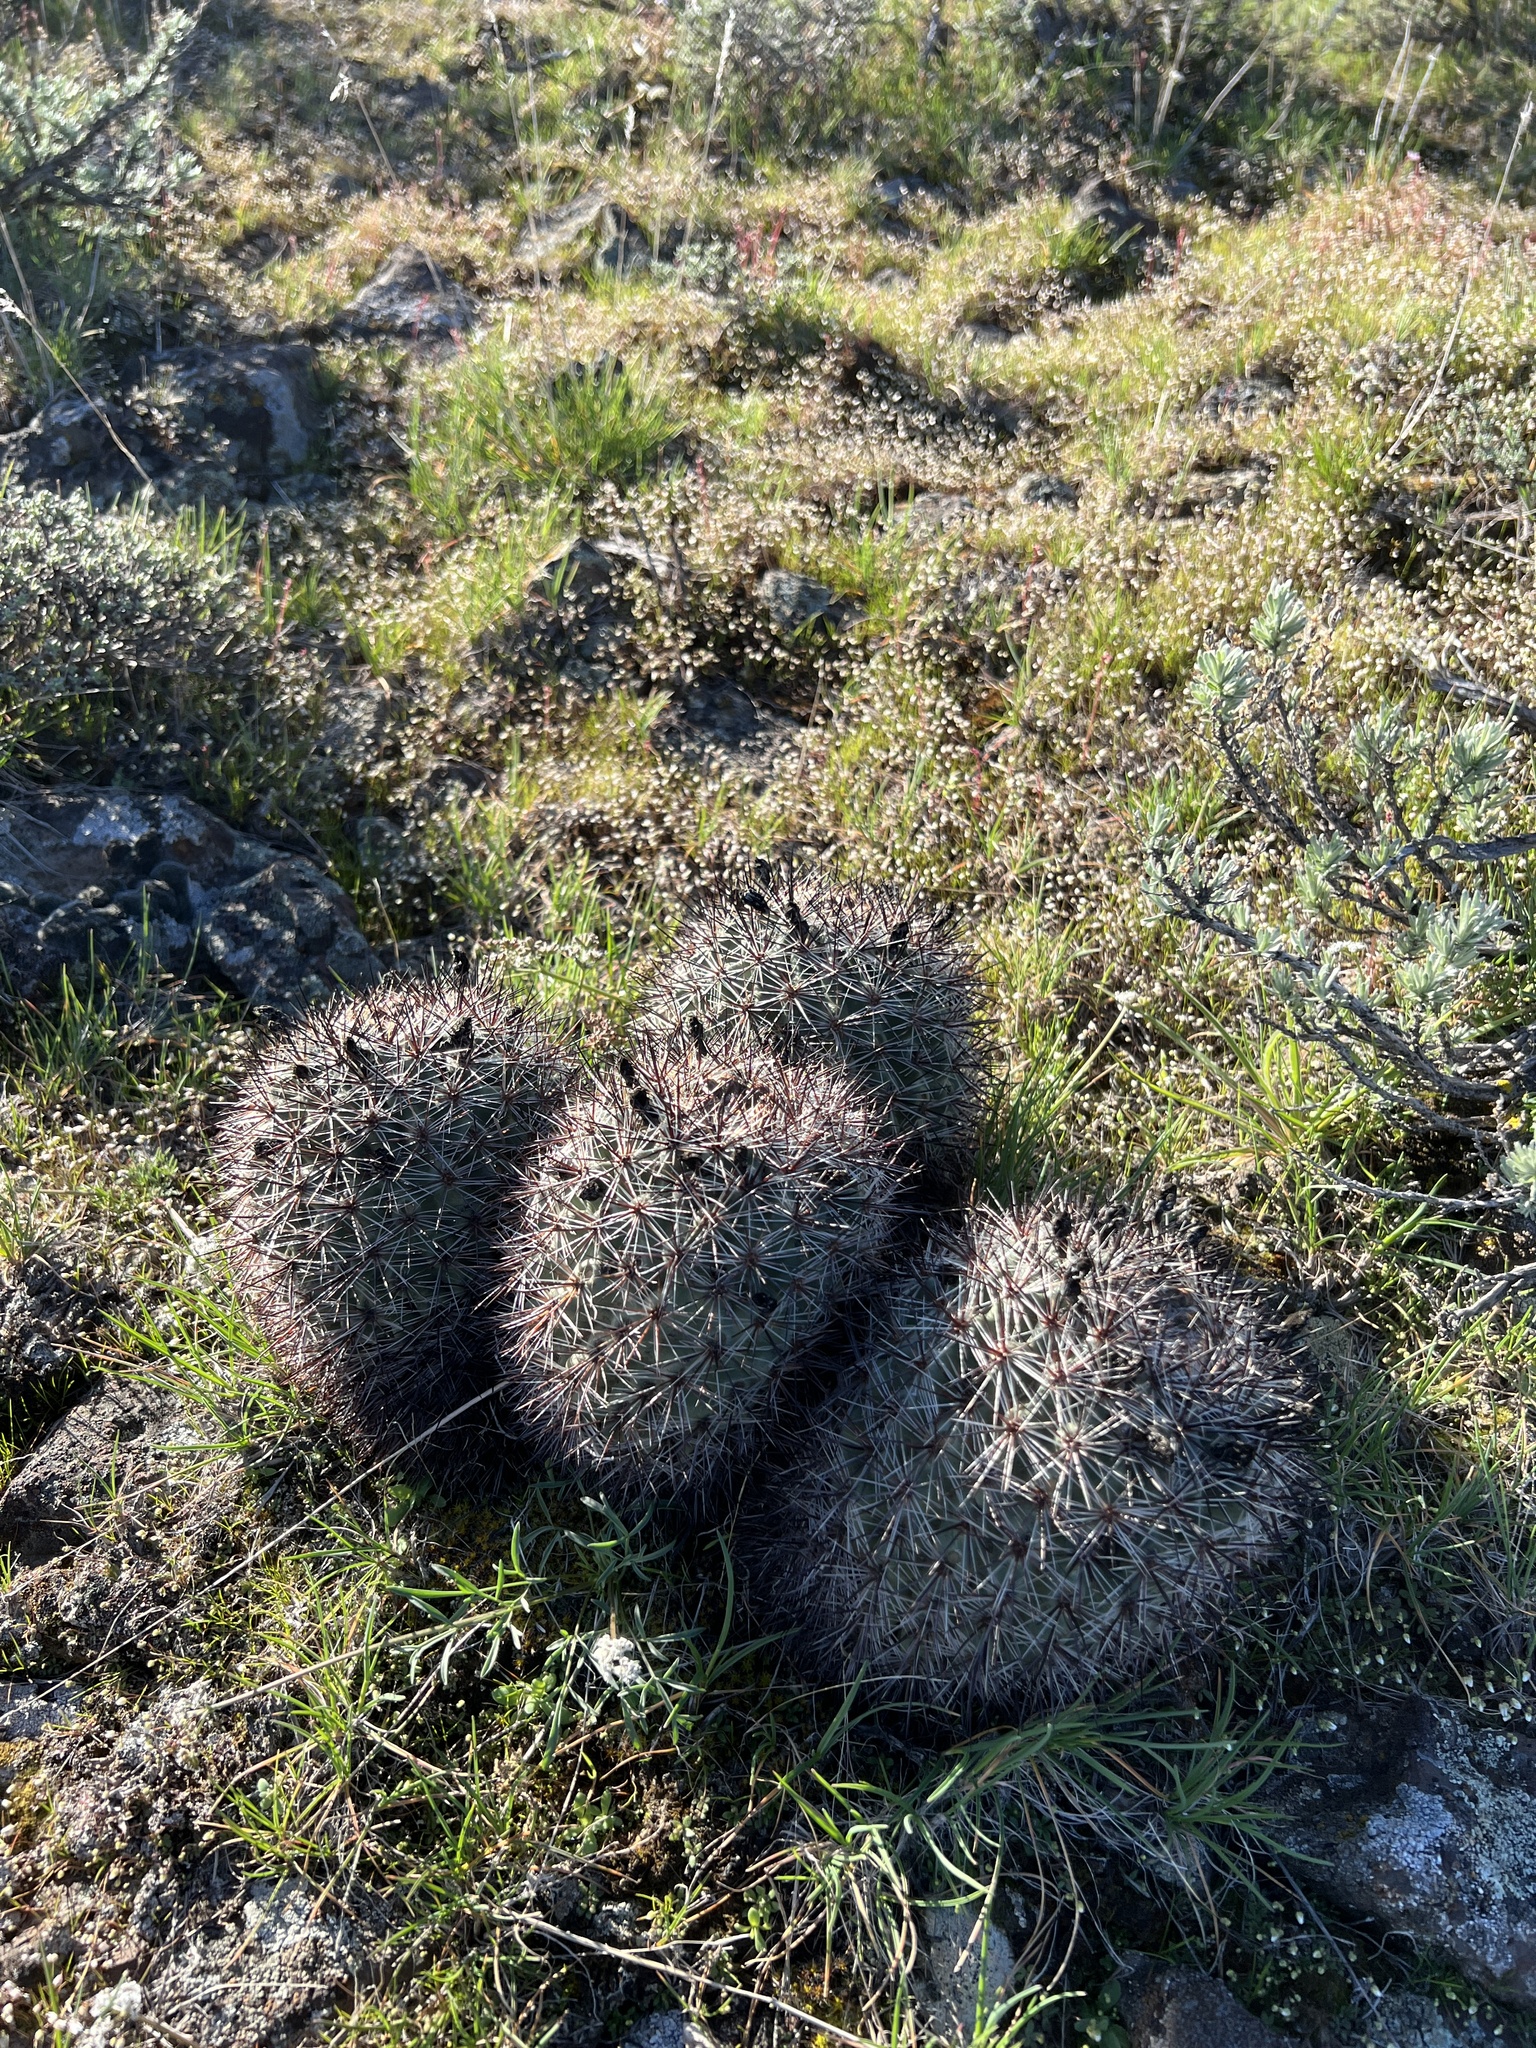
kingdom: Plantae
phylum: Tracheophyta
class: Magnoliopsida
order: Caryophyllales
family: Cactaceae
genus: Pediocactus
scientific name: Pediocactus nigrispinus
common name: Simpson's hedgehog cactus
